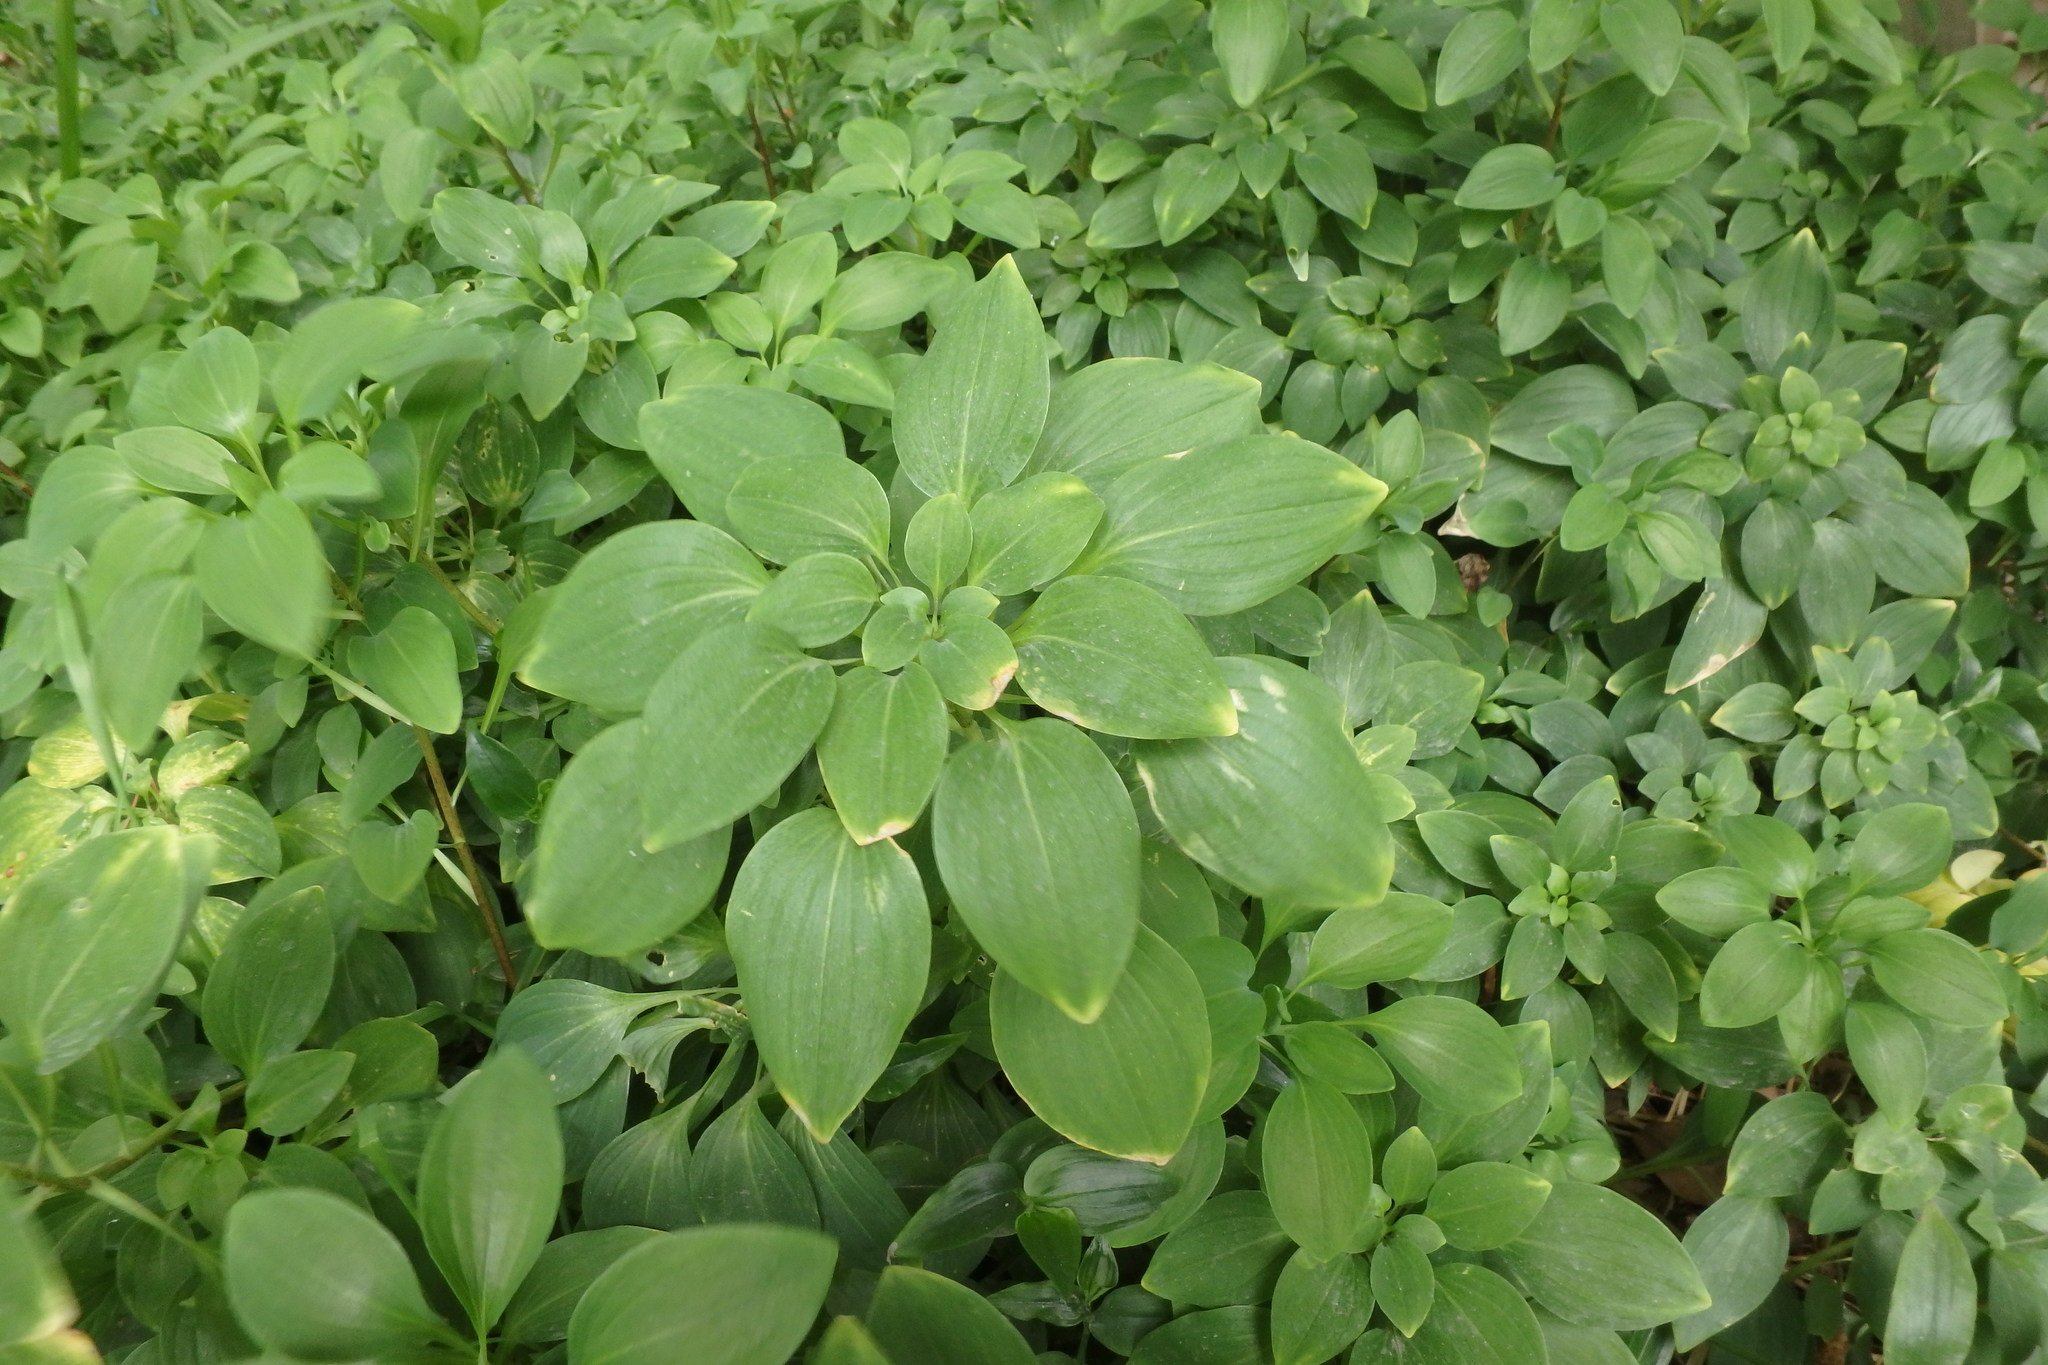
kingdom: Plantae
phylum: Tracheophyta
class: Liliopsida
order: Liliales
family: Alstroemeriaceae
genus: Alstroemeria
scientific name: Alstroemeria psittacina
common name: Peruvian-lily
